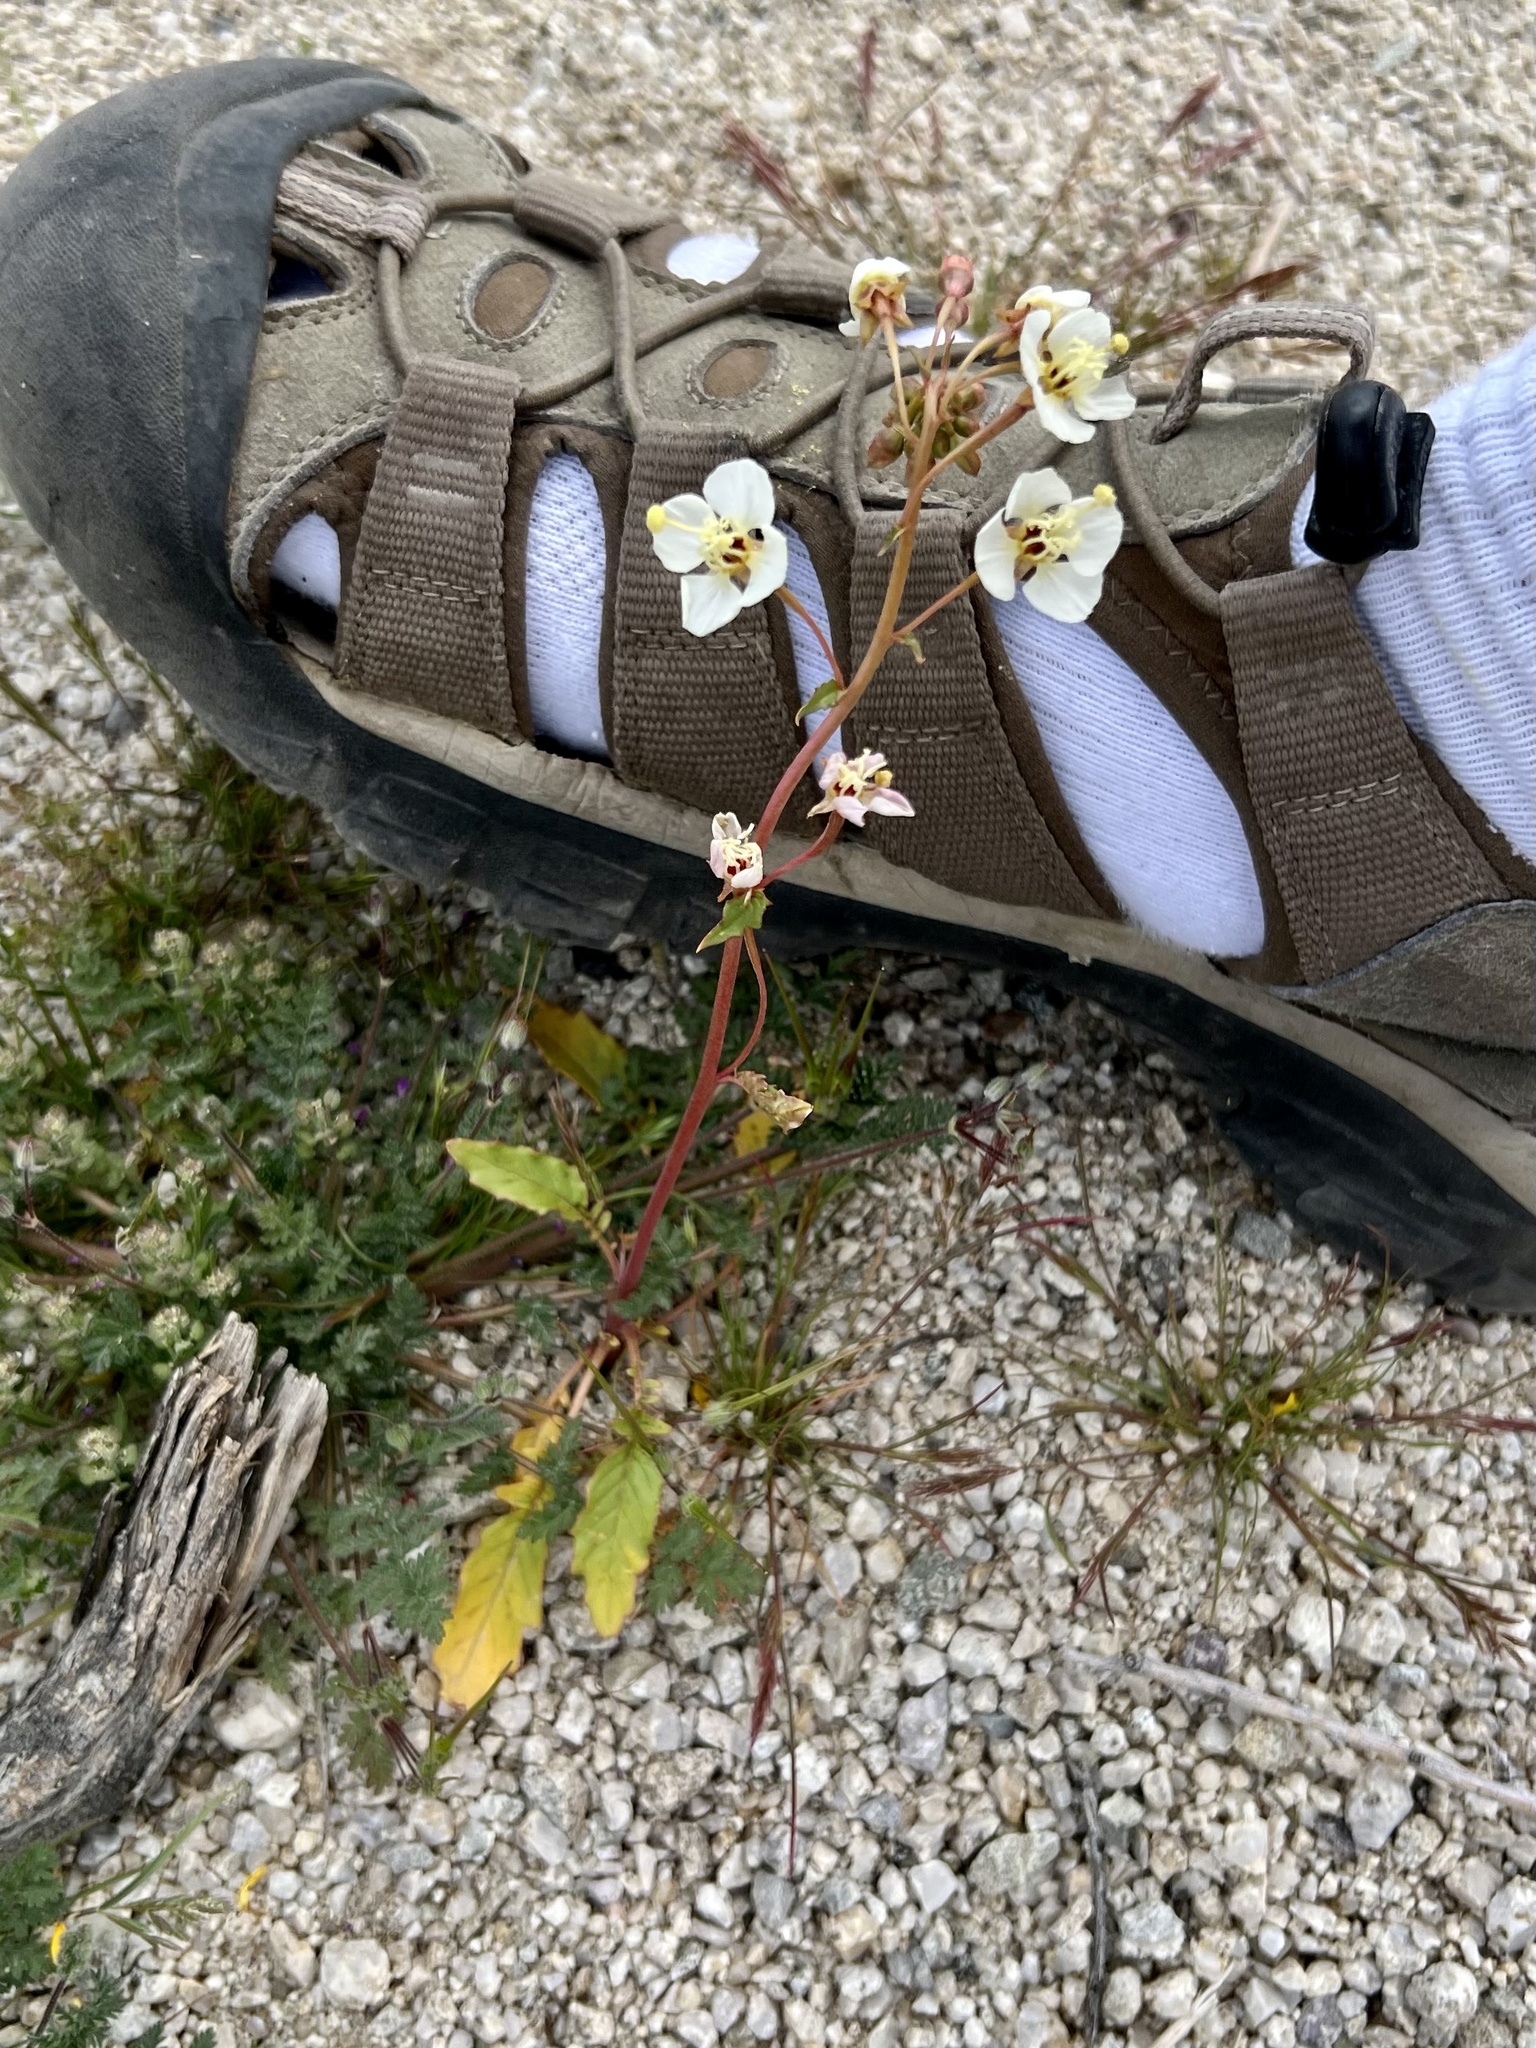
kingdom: Plantae
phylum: Tracheophyta
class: Magnoliopsida
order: Myrtales
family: Onagraceae
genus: Chylismia
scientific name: Chylismia claviformis
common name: Browneyes
